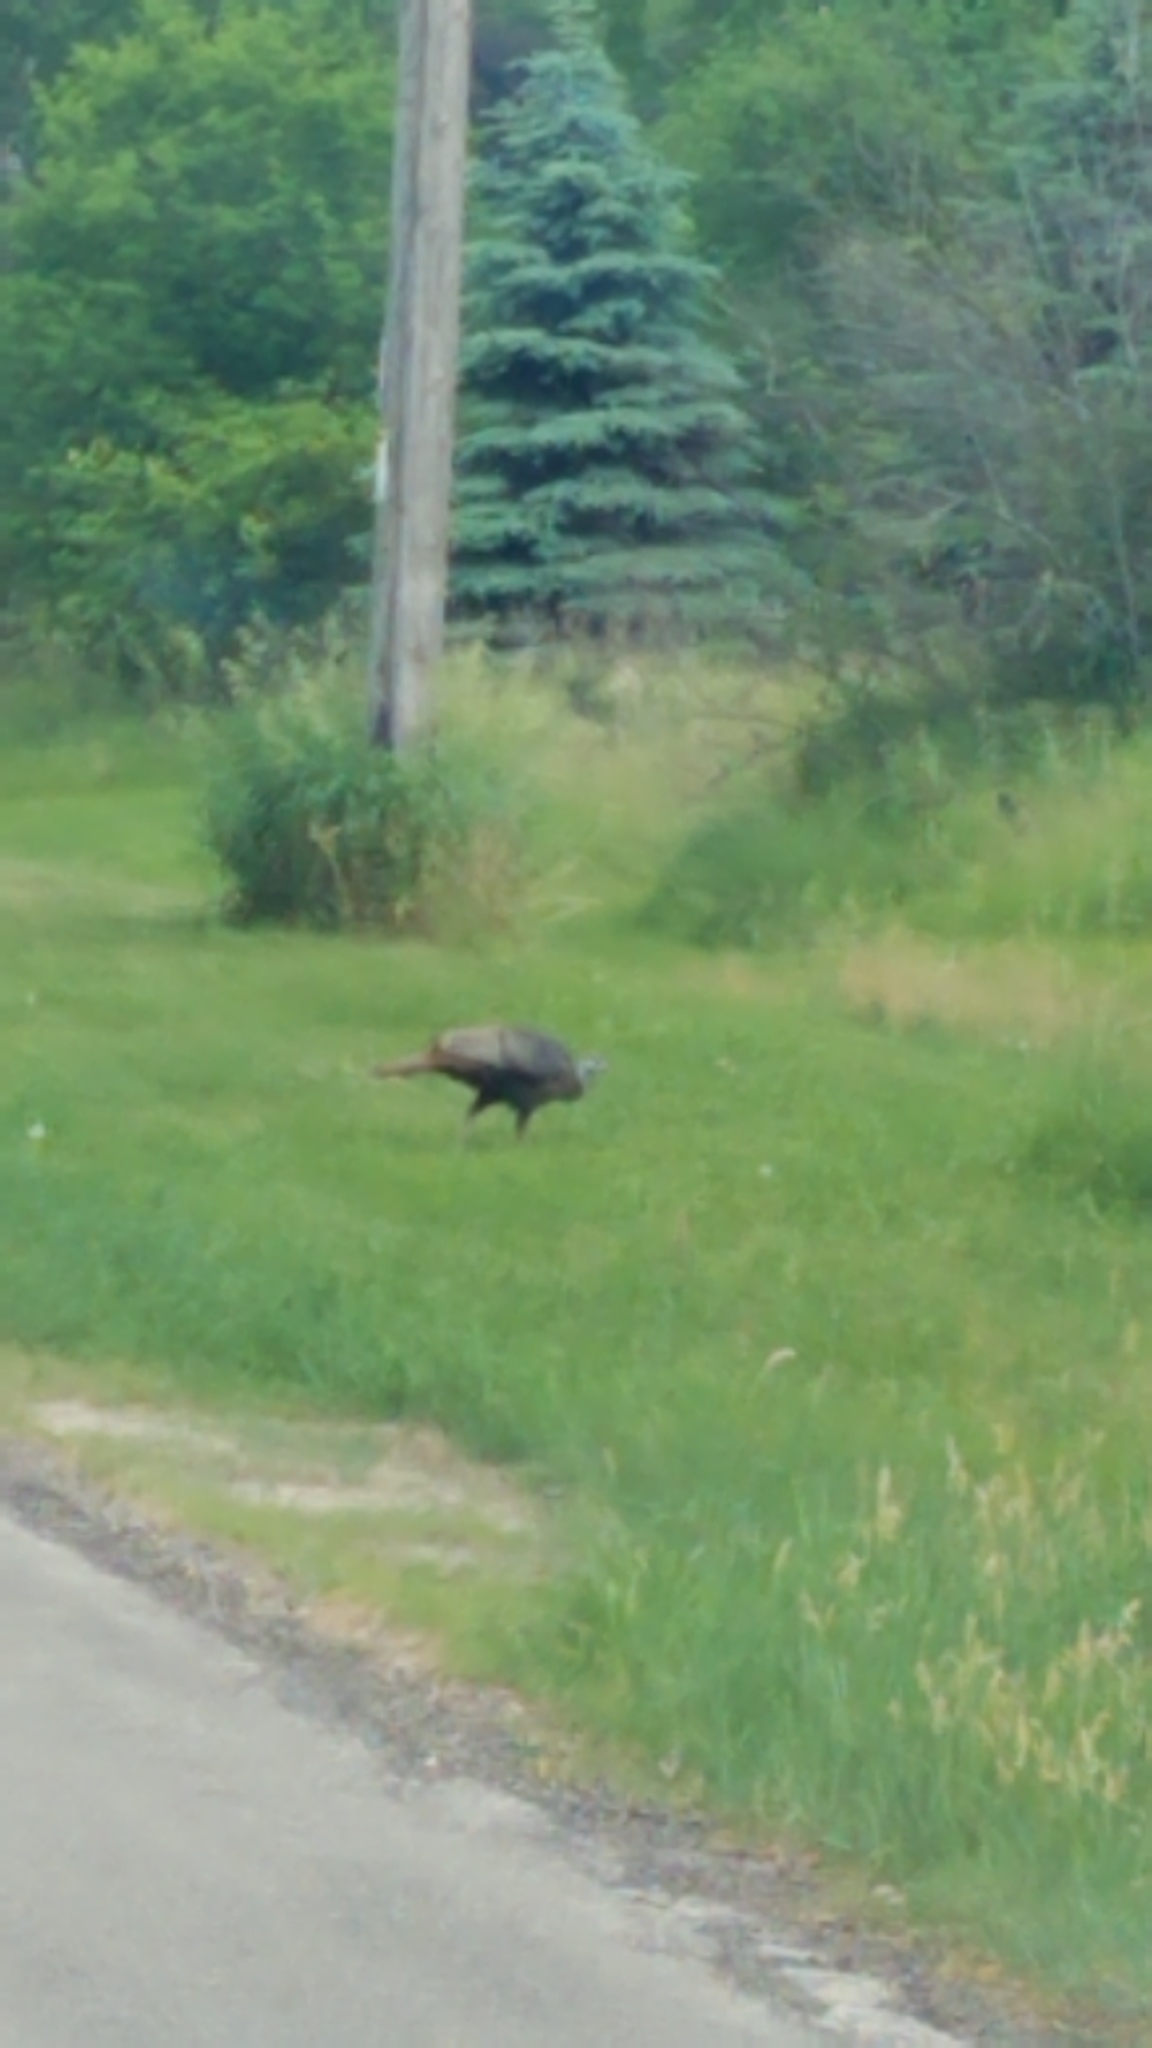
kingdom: Animalia
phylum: Chordata
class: Aves
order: Galliformes
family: Phasianidae
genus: Meleagris
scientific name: Meleagris gallopavo
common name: Wild turkey
